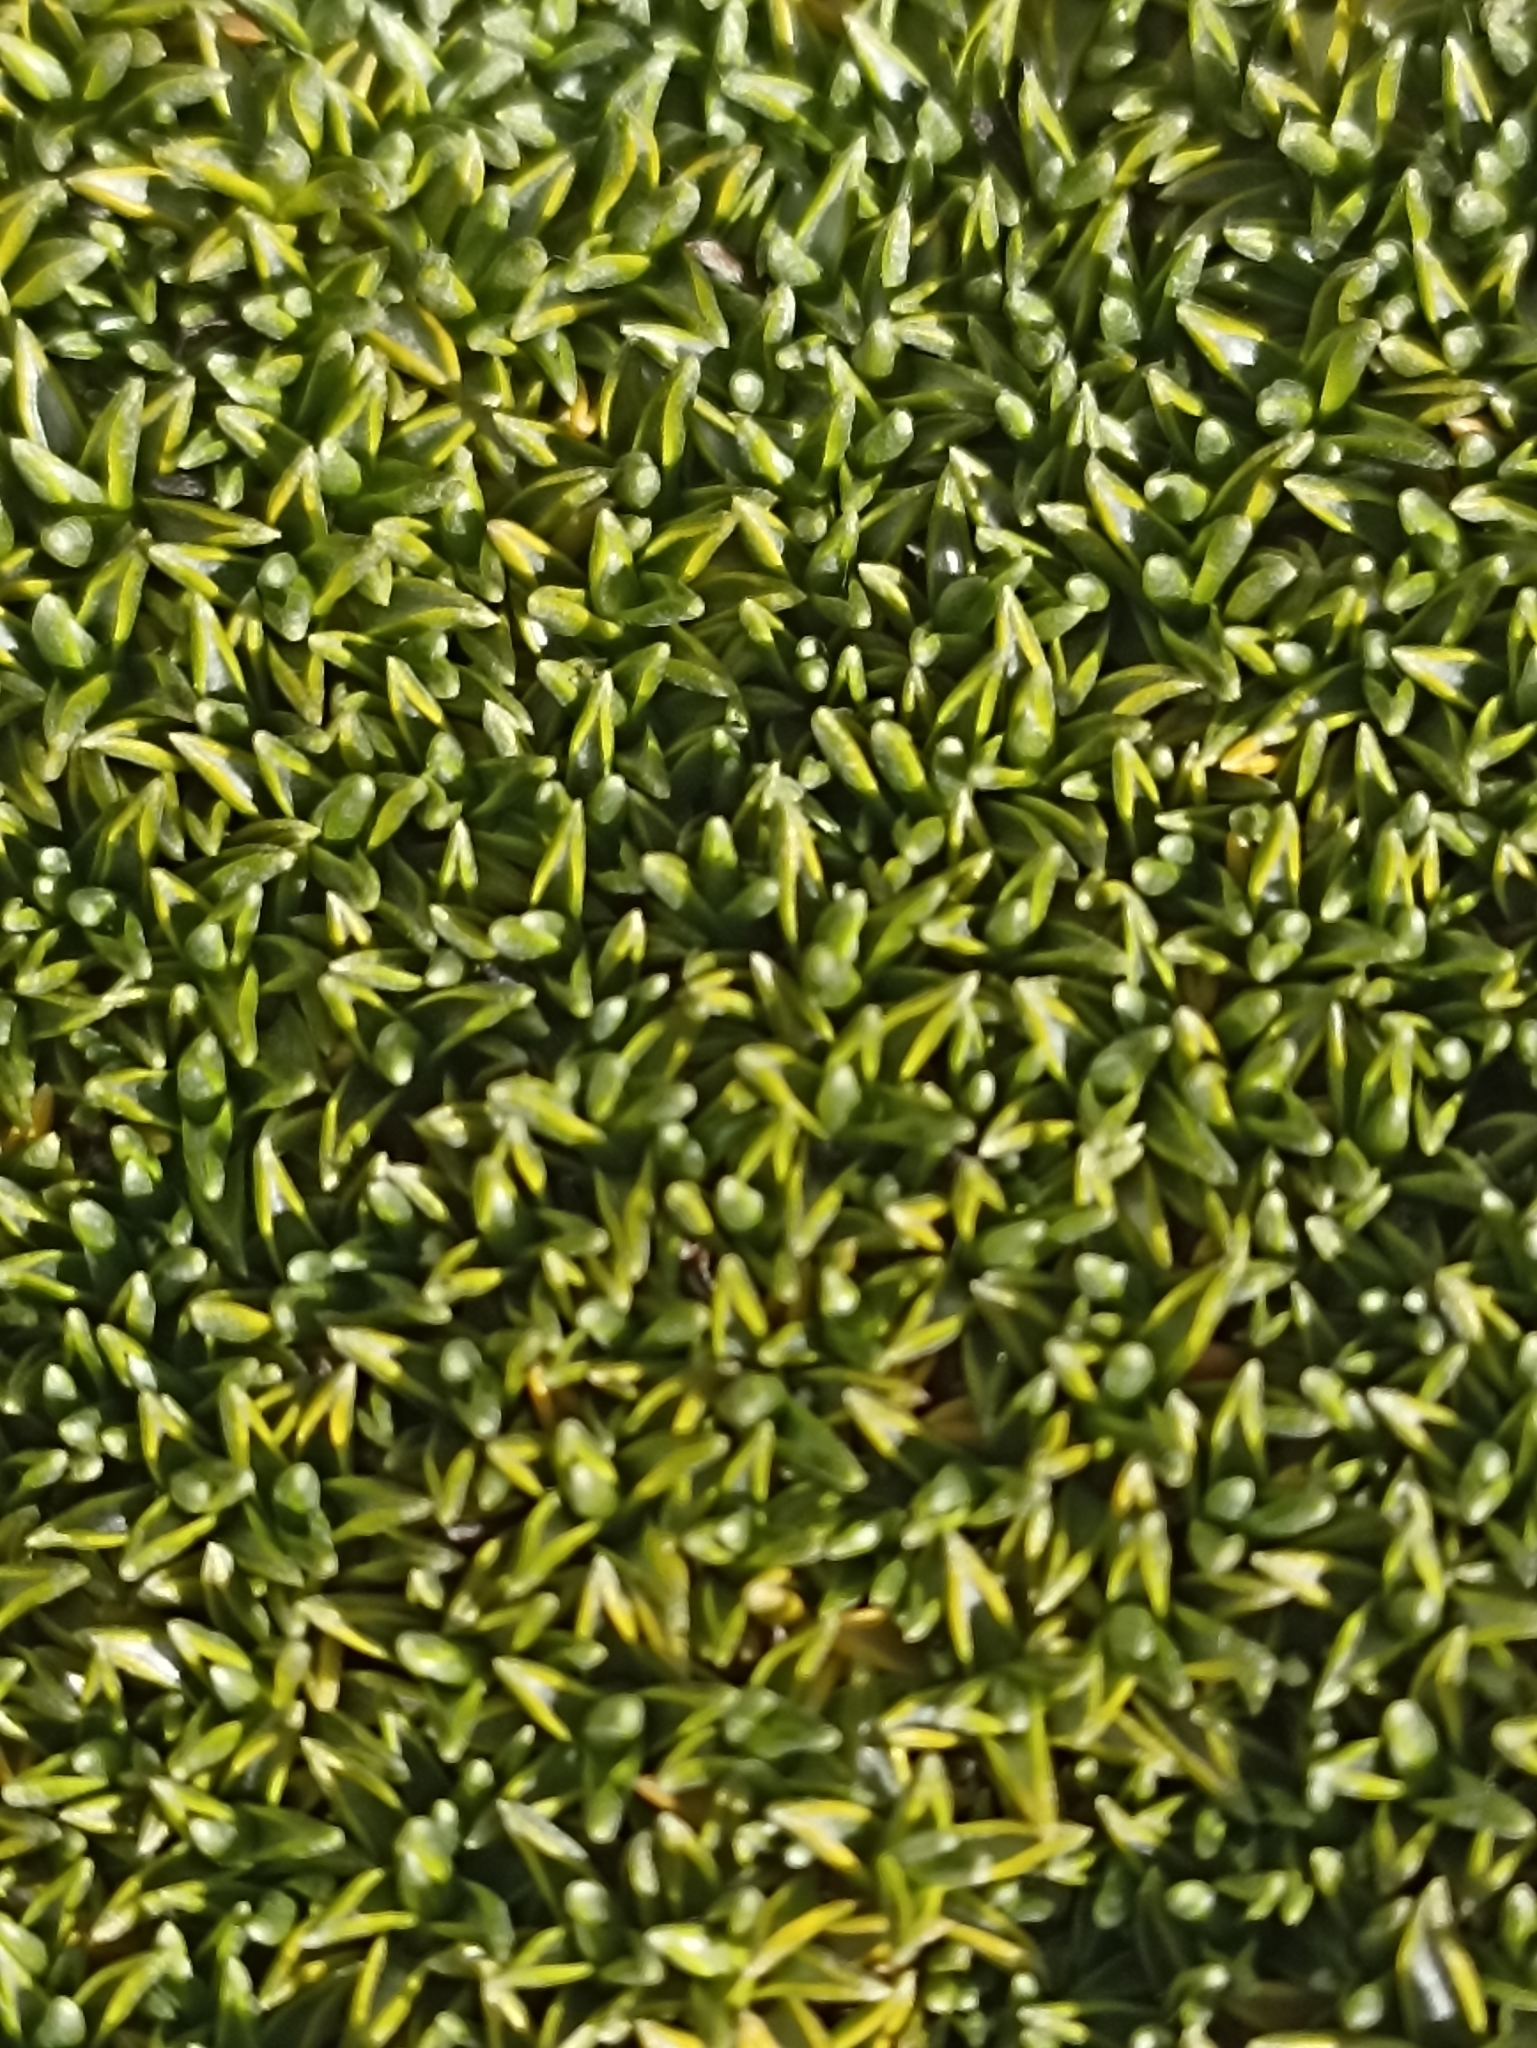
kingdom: Plantae
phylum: Tracheophyta
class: Magnoliopsida
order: Asterales
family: Asteraceae
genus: Raoulia
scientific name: Raoulia tenuicaulis
